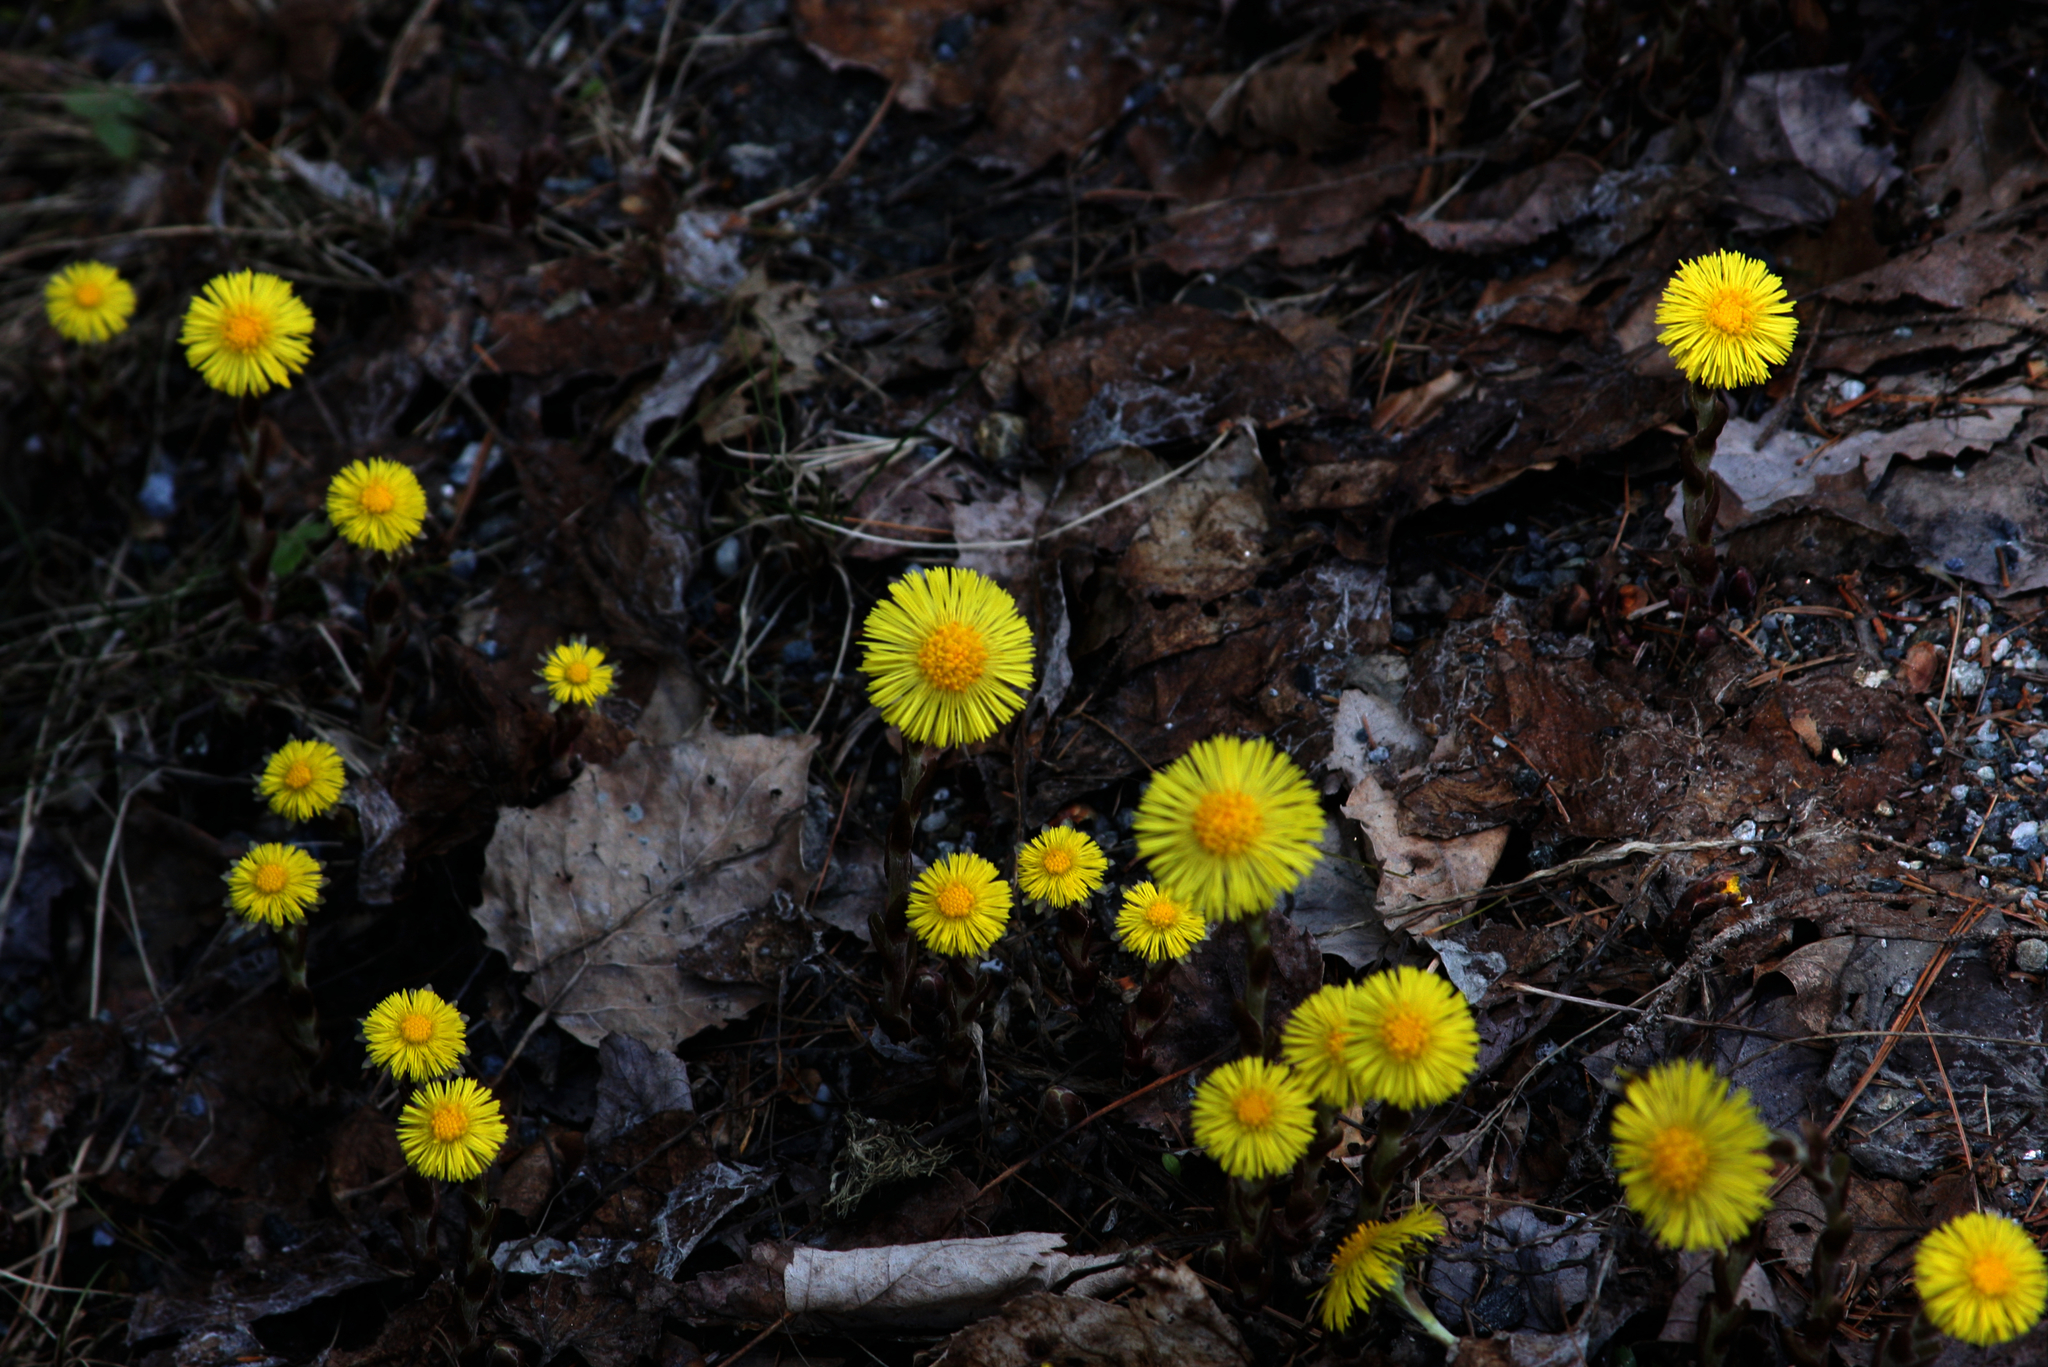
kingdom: Plantae
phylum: Tracheophyta
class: Magnoliopsida
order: Asterales
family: Asteraceae
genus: Tussilago
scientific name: Tussilago farfara
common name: Coltsfoot
